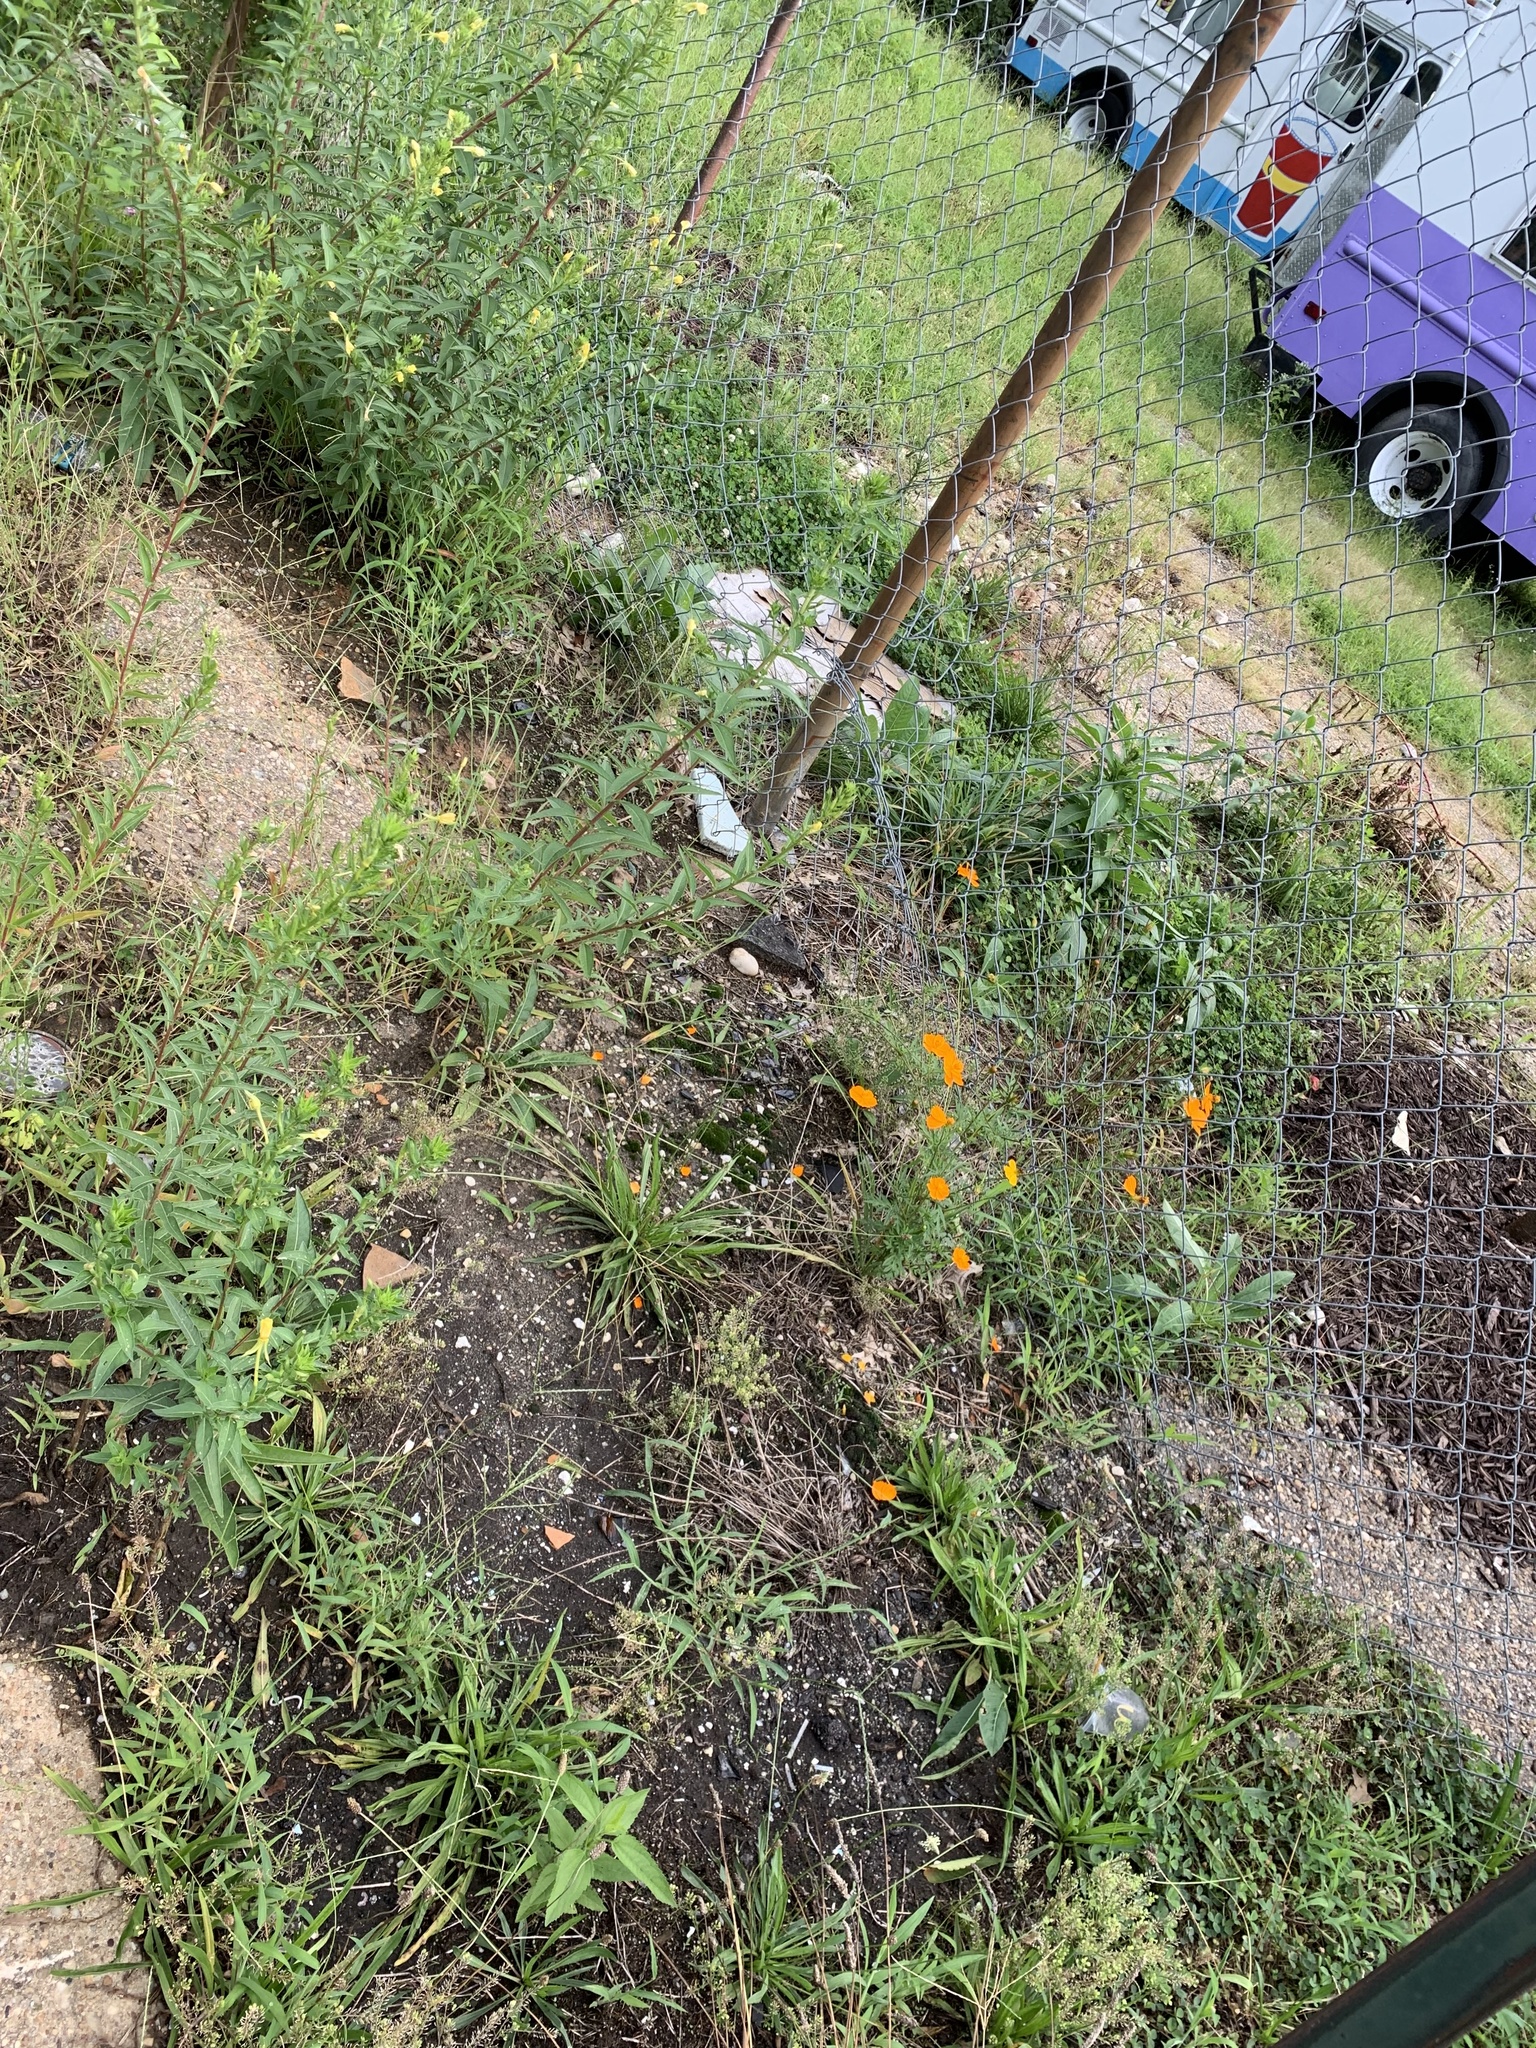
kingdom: Plantae
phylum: Tracheophyta
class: Magnoliopsida
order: Asterales
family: Asteraceae
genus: Cosmos
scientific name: Cosmos sulphureus
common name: Sulphur cosmos
